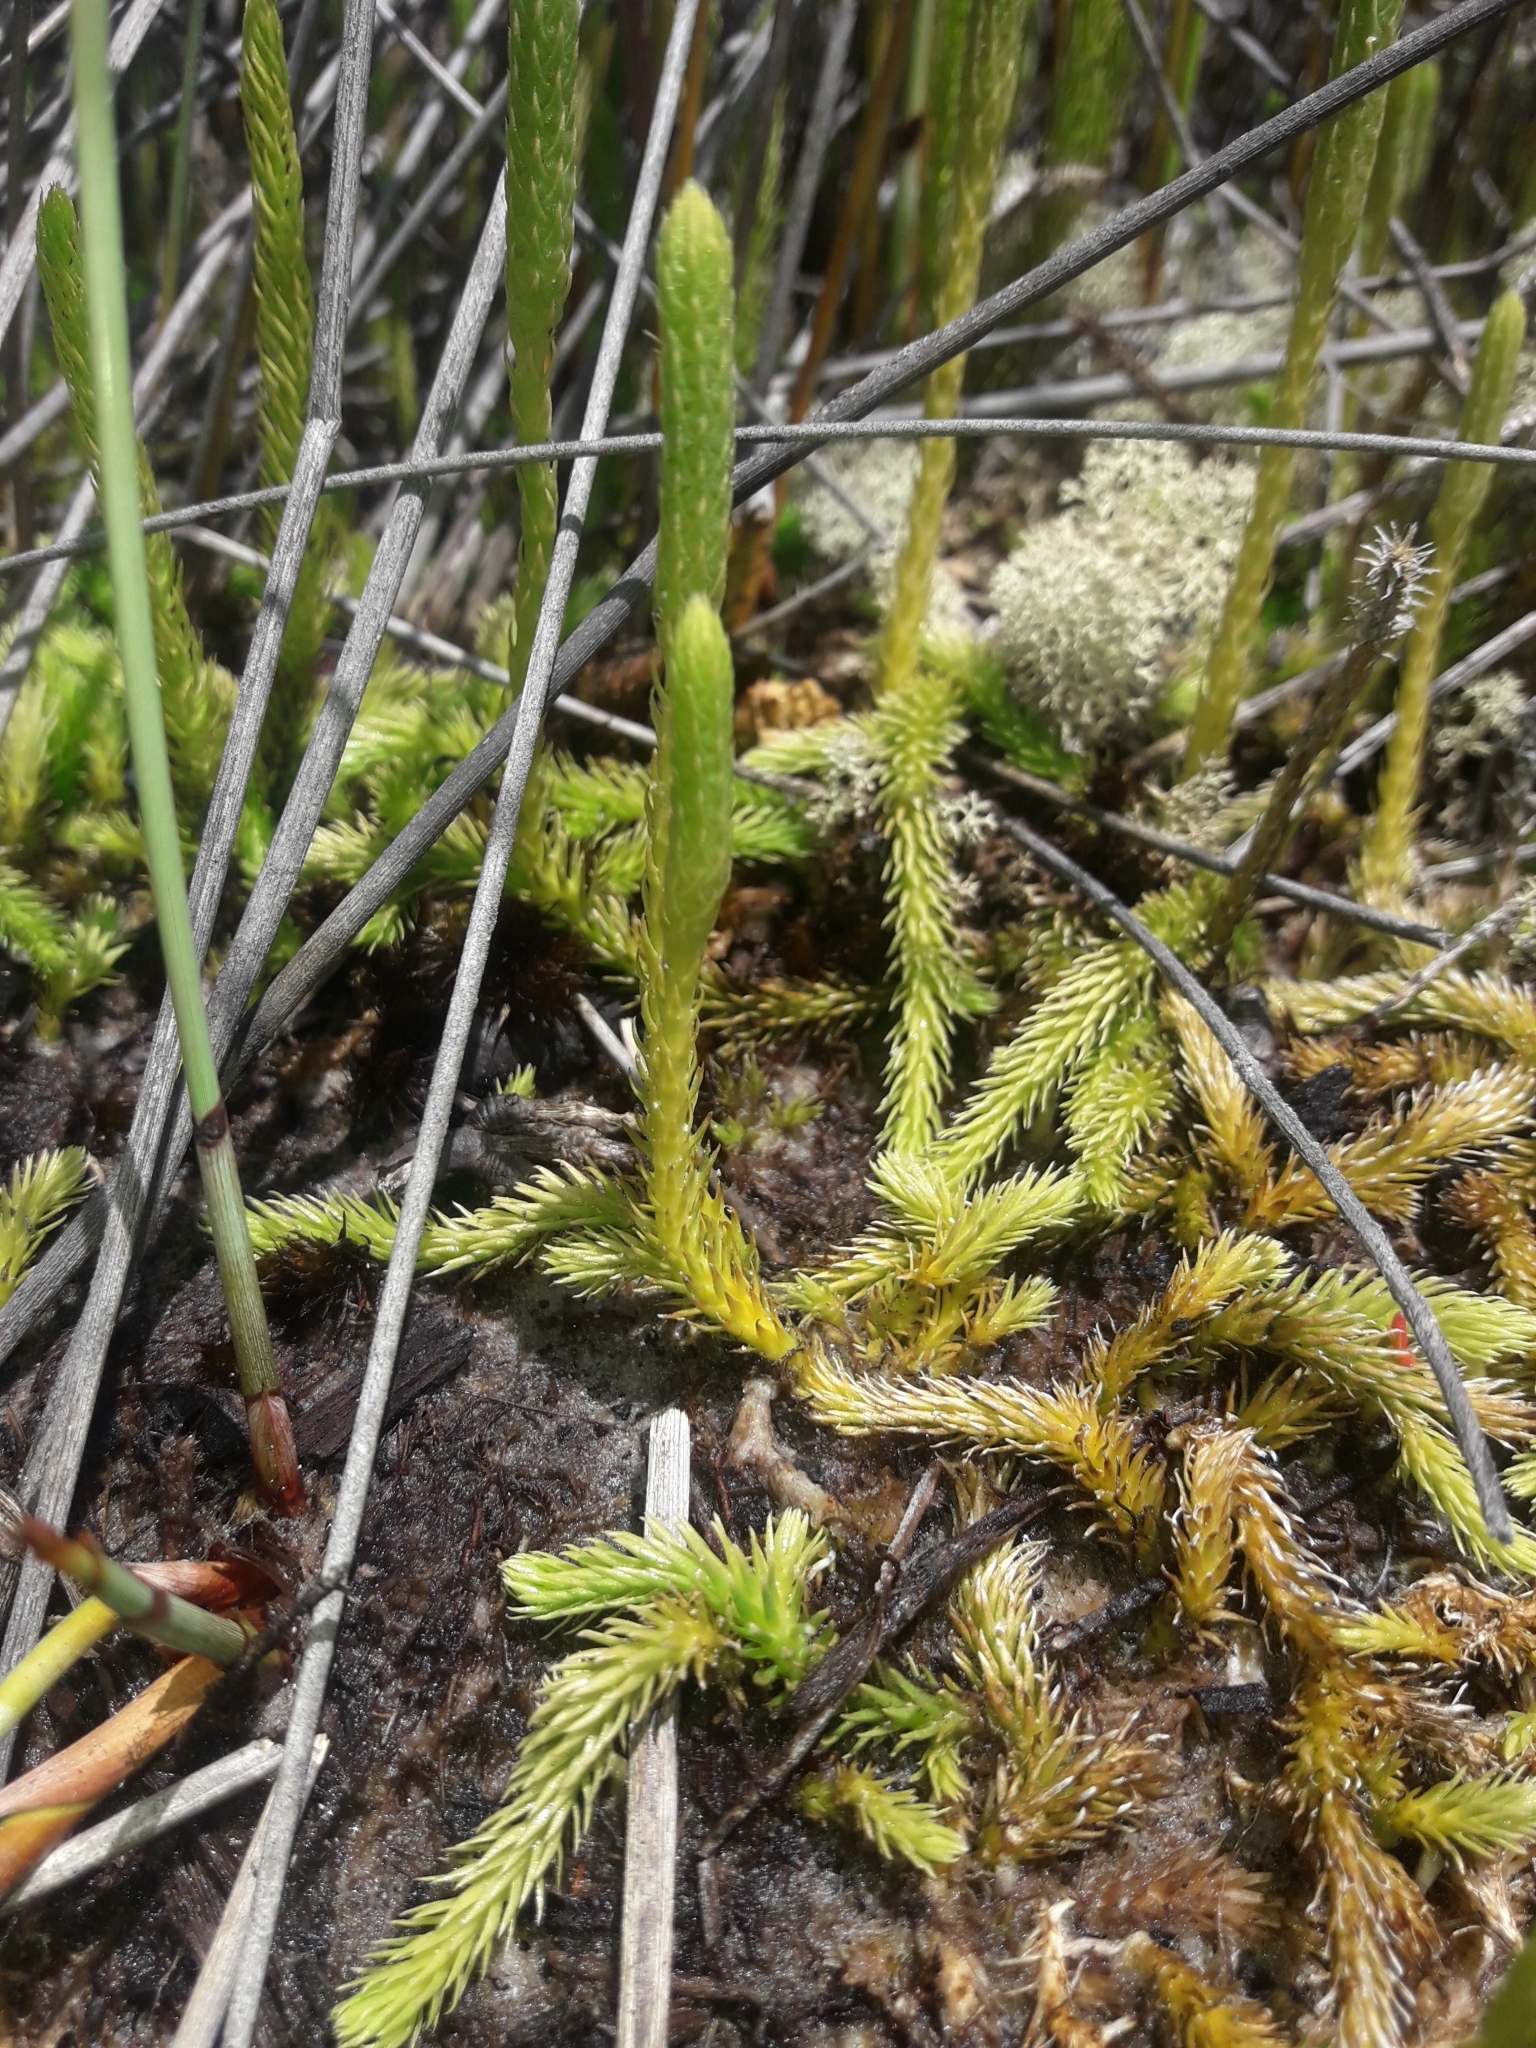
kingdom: Plantae
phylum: Tracheophyta
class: Lycopodiopsida
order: Lycopodiales
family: Lycopodiaceae
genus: Brownseya
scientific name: Brownseya serpentina
